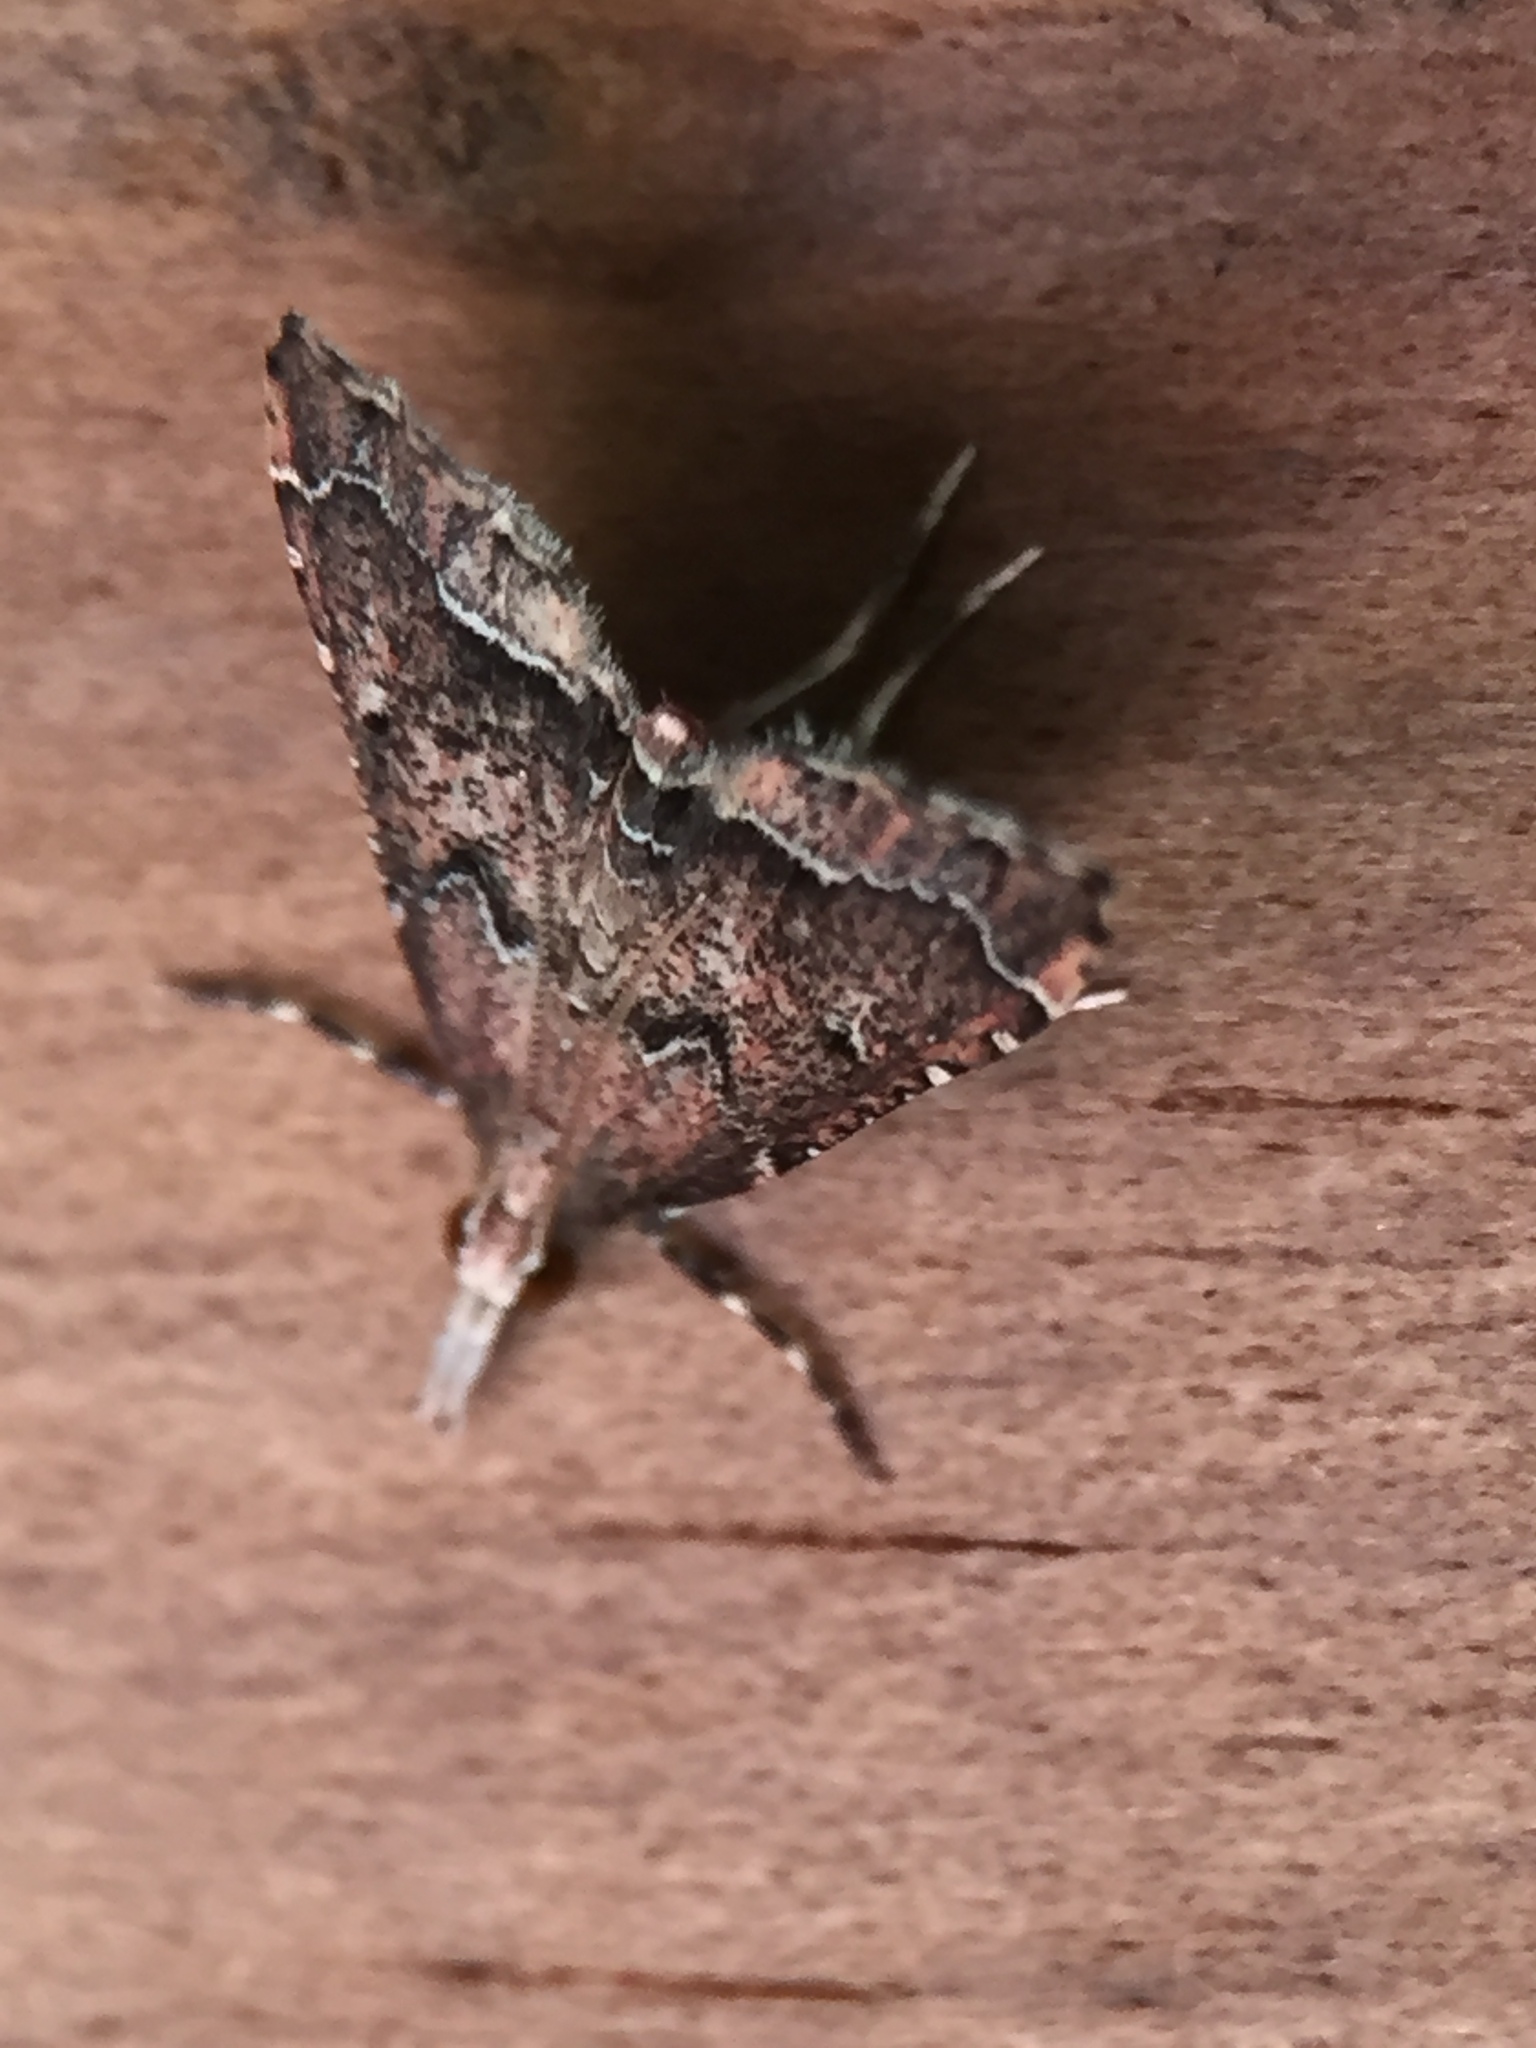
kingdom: Animalia
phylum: Arthropoda
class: Insecta
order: Lepidoptera
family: Crambidae
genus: Diplopseustis
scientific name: Diplopseustis perieresalis
